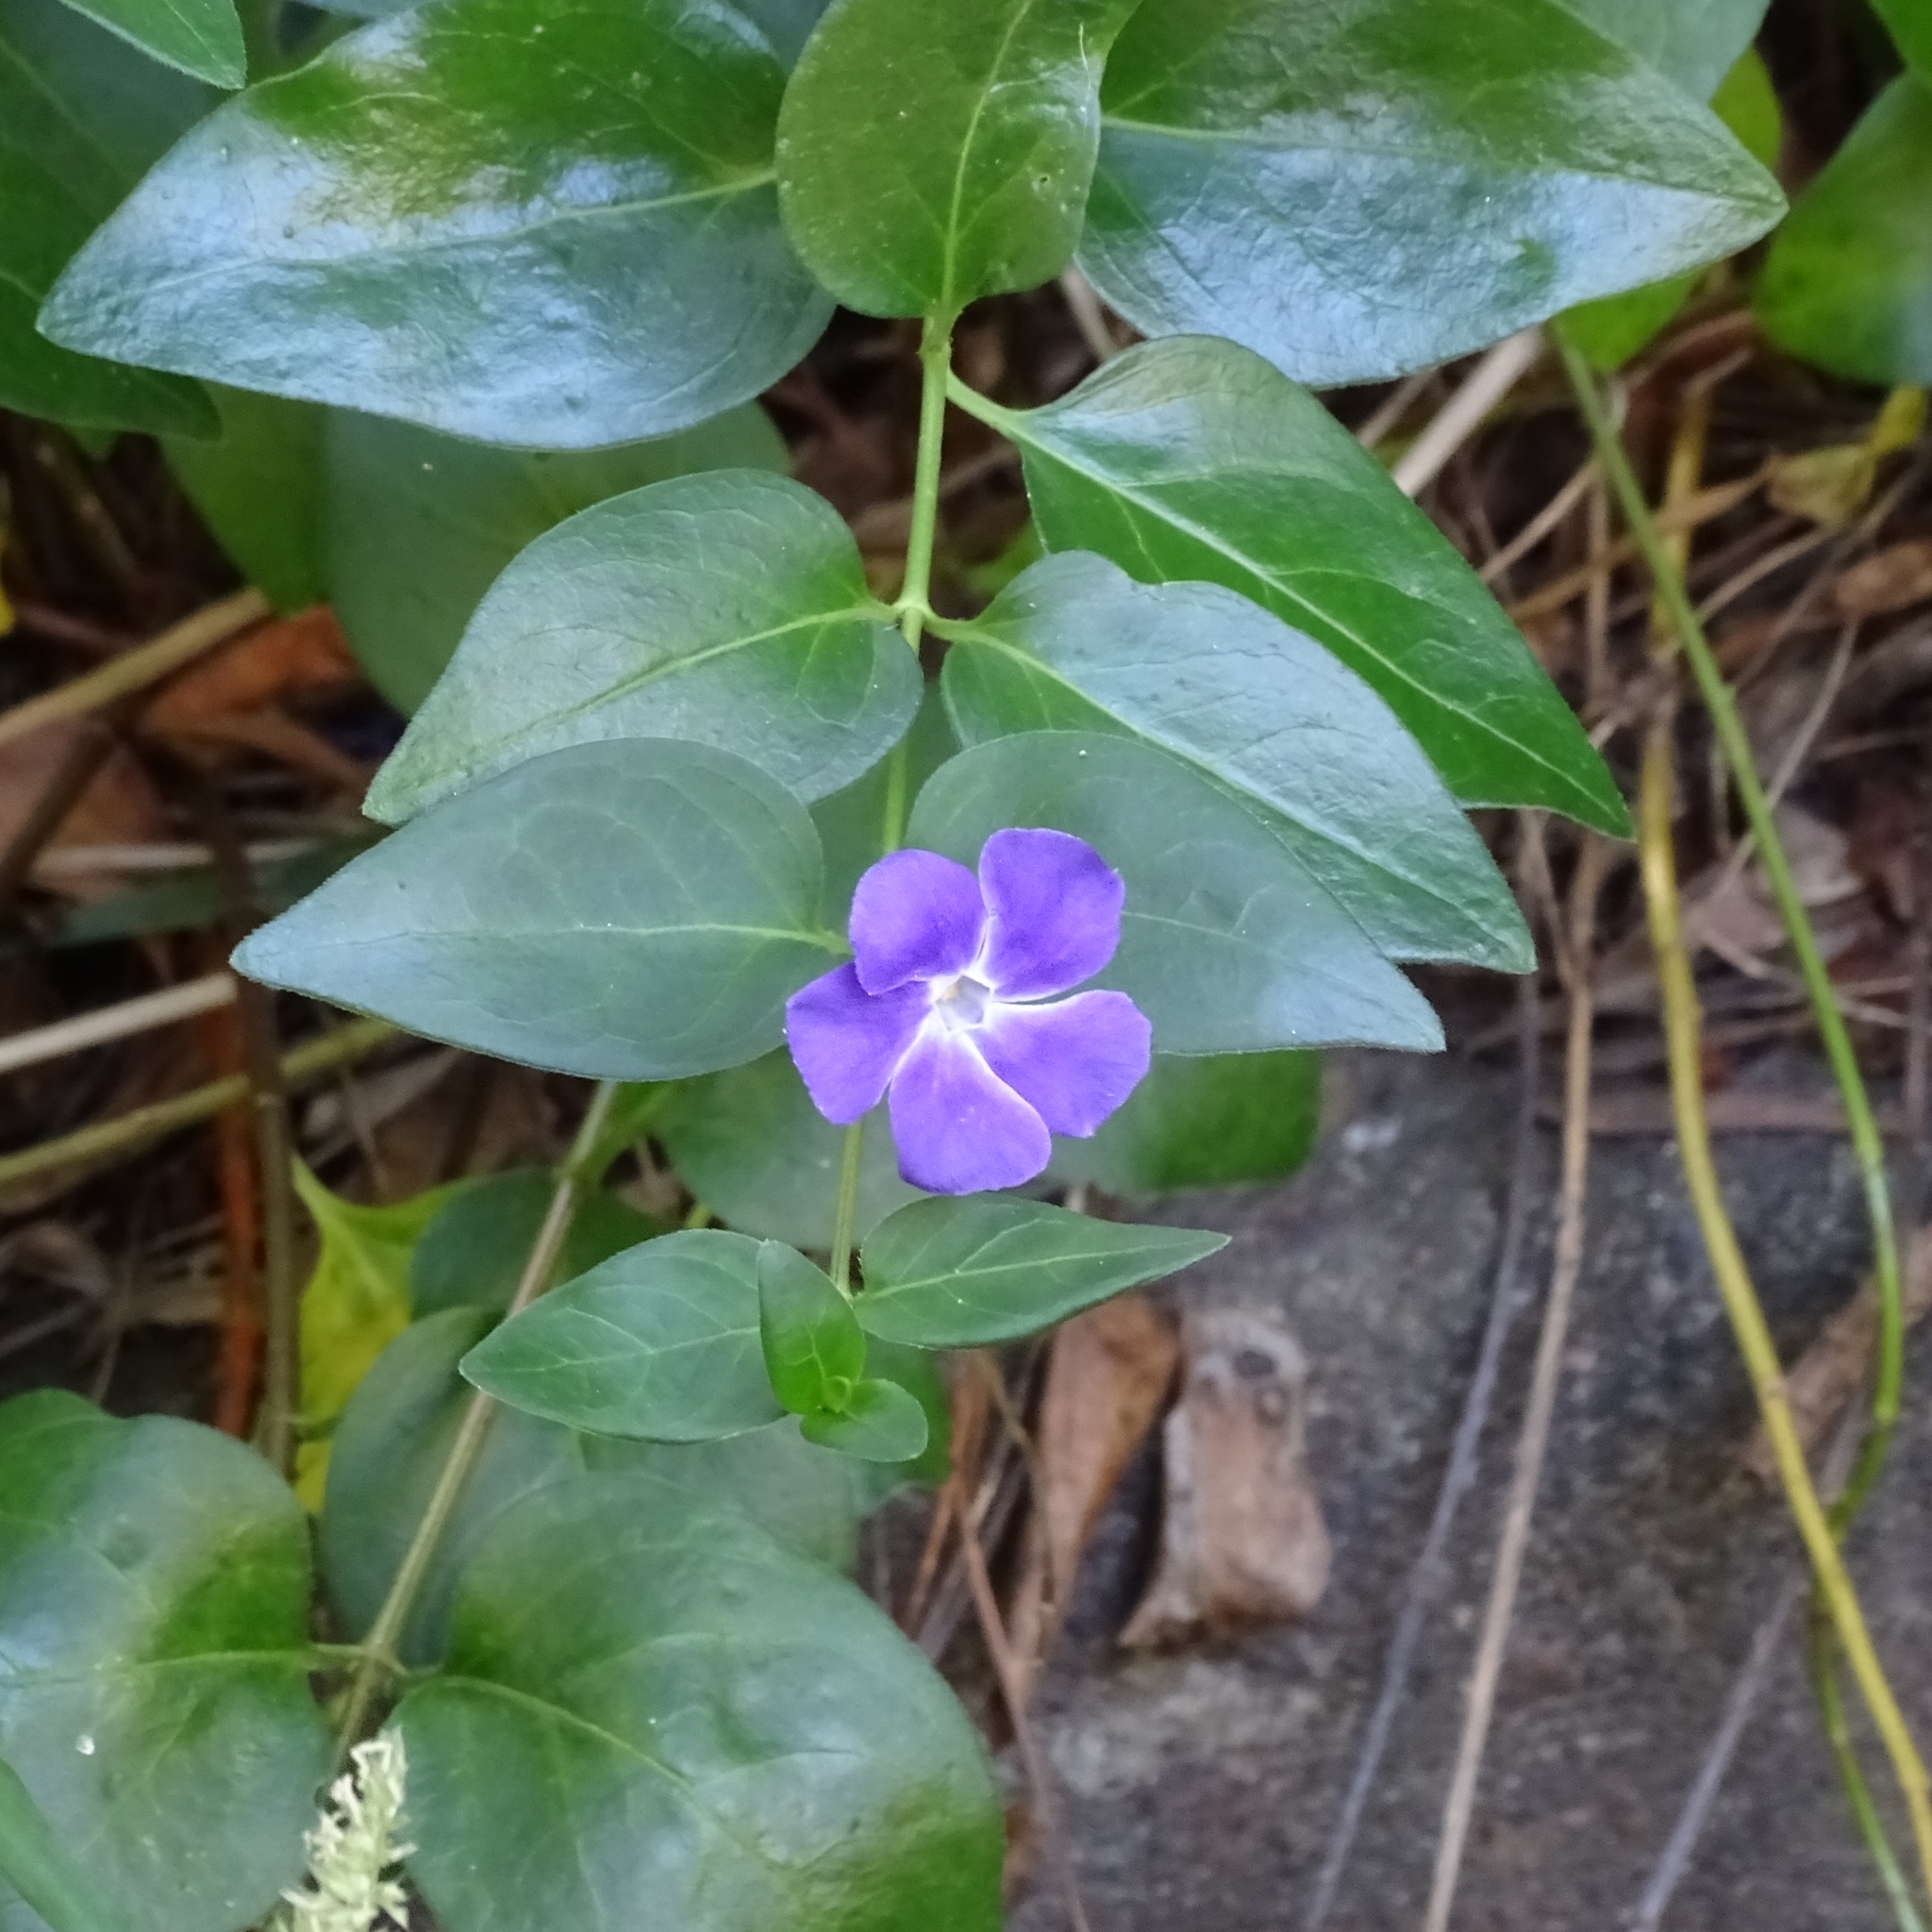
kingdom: Plantae
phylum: Tracheophyta
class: Magnoliopsida
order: Gentianales
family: Apocynaceae
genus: Vinca
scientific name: Vinca major
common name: Greater periwinkle
